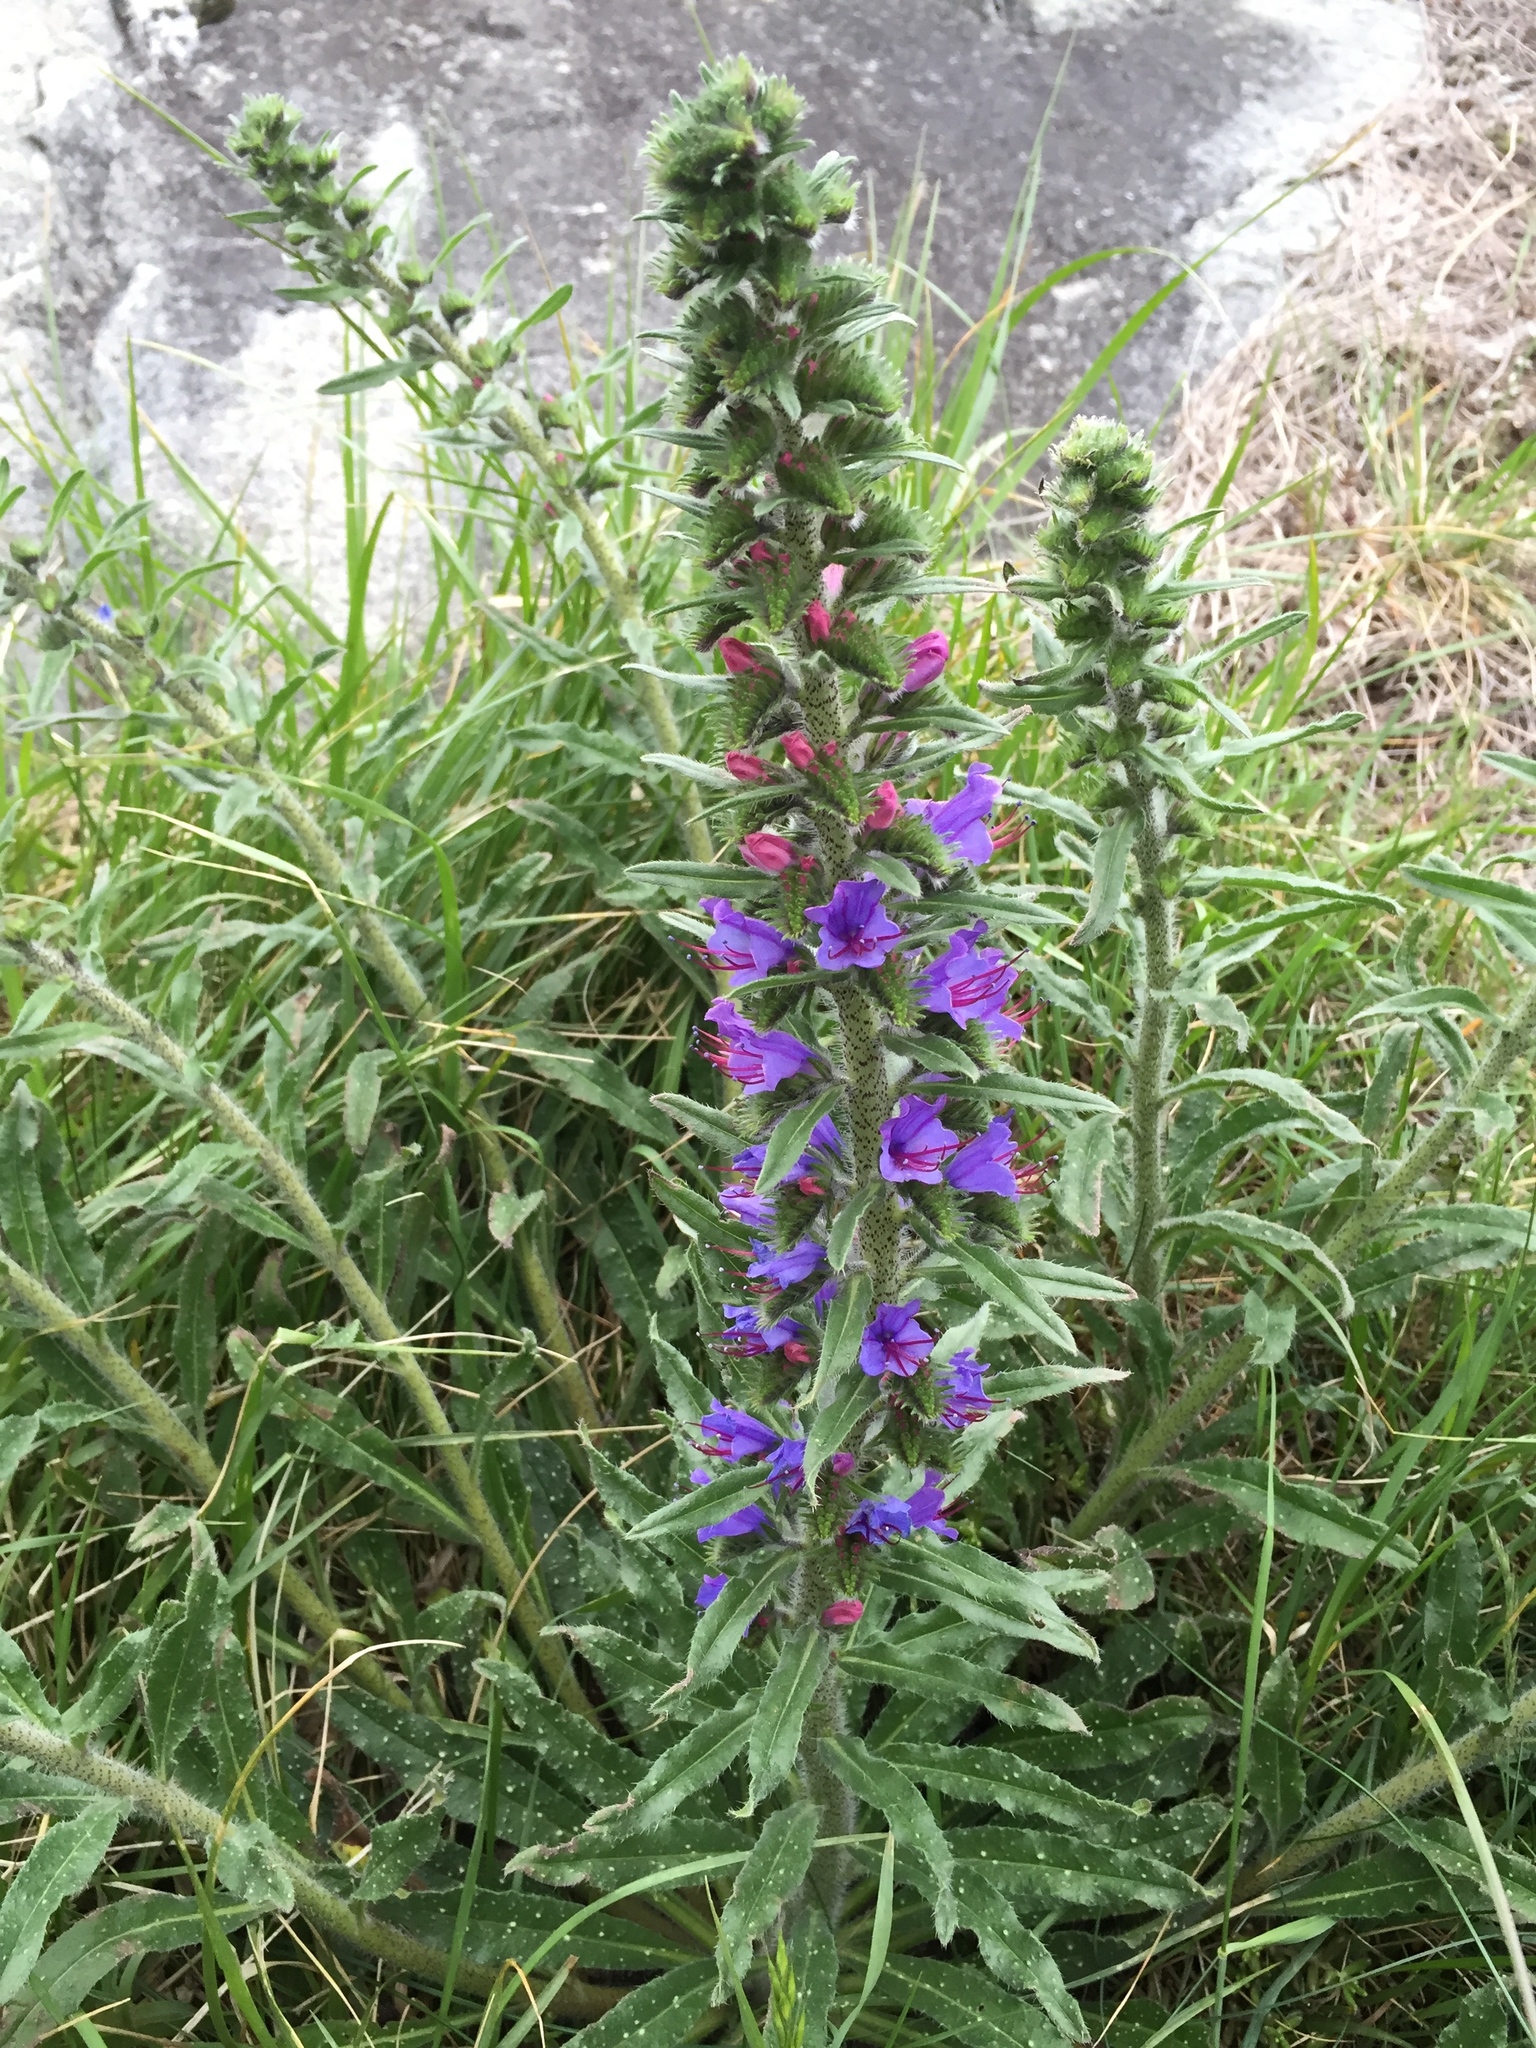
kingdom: Plantae
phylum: Tracheophyta
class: Magnoliopsida
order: Boraginales
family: Boraginaceae
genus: Echium
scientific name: Echium vulgare
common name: Common viper's bugloss
